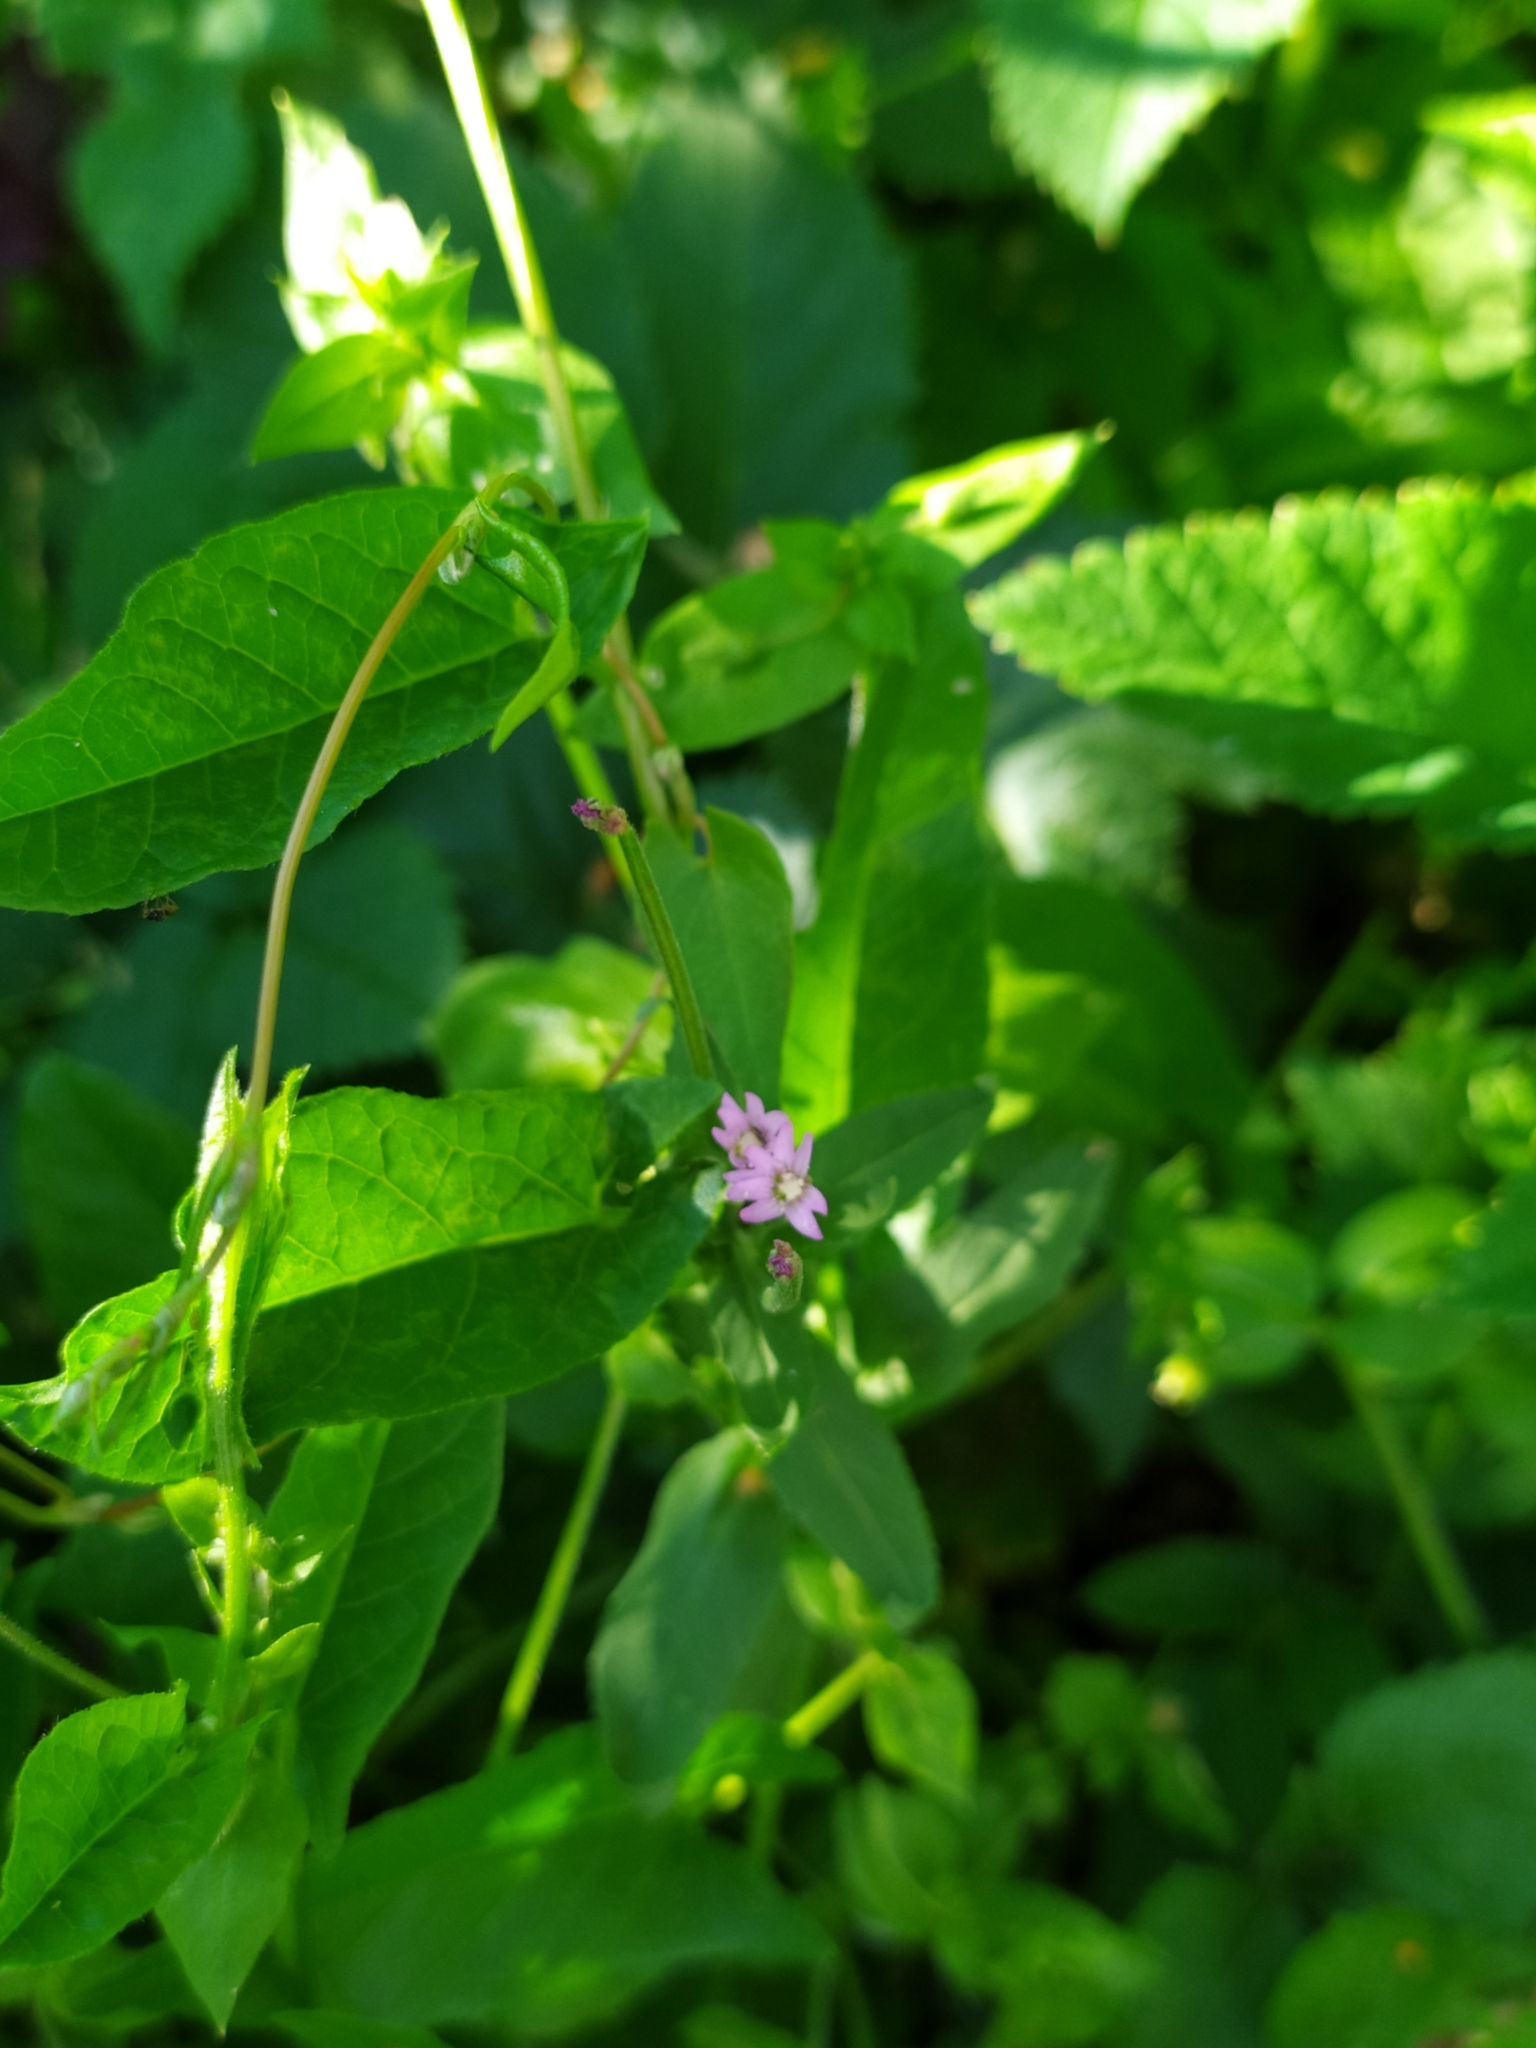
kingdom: Plantae
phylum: Tracheophyta
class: Magnoliopsida
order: Myrtales
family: Onagraceae
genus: Epilobium
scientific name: Epilobium ciliatum
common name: American willowherb
